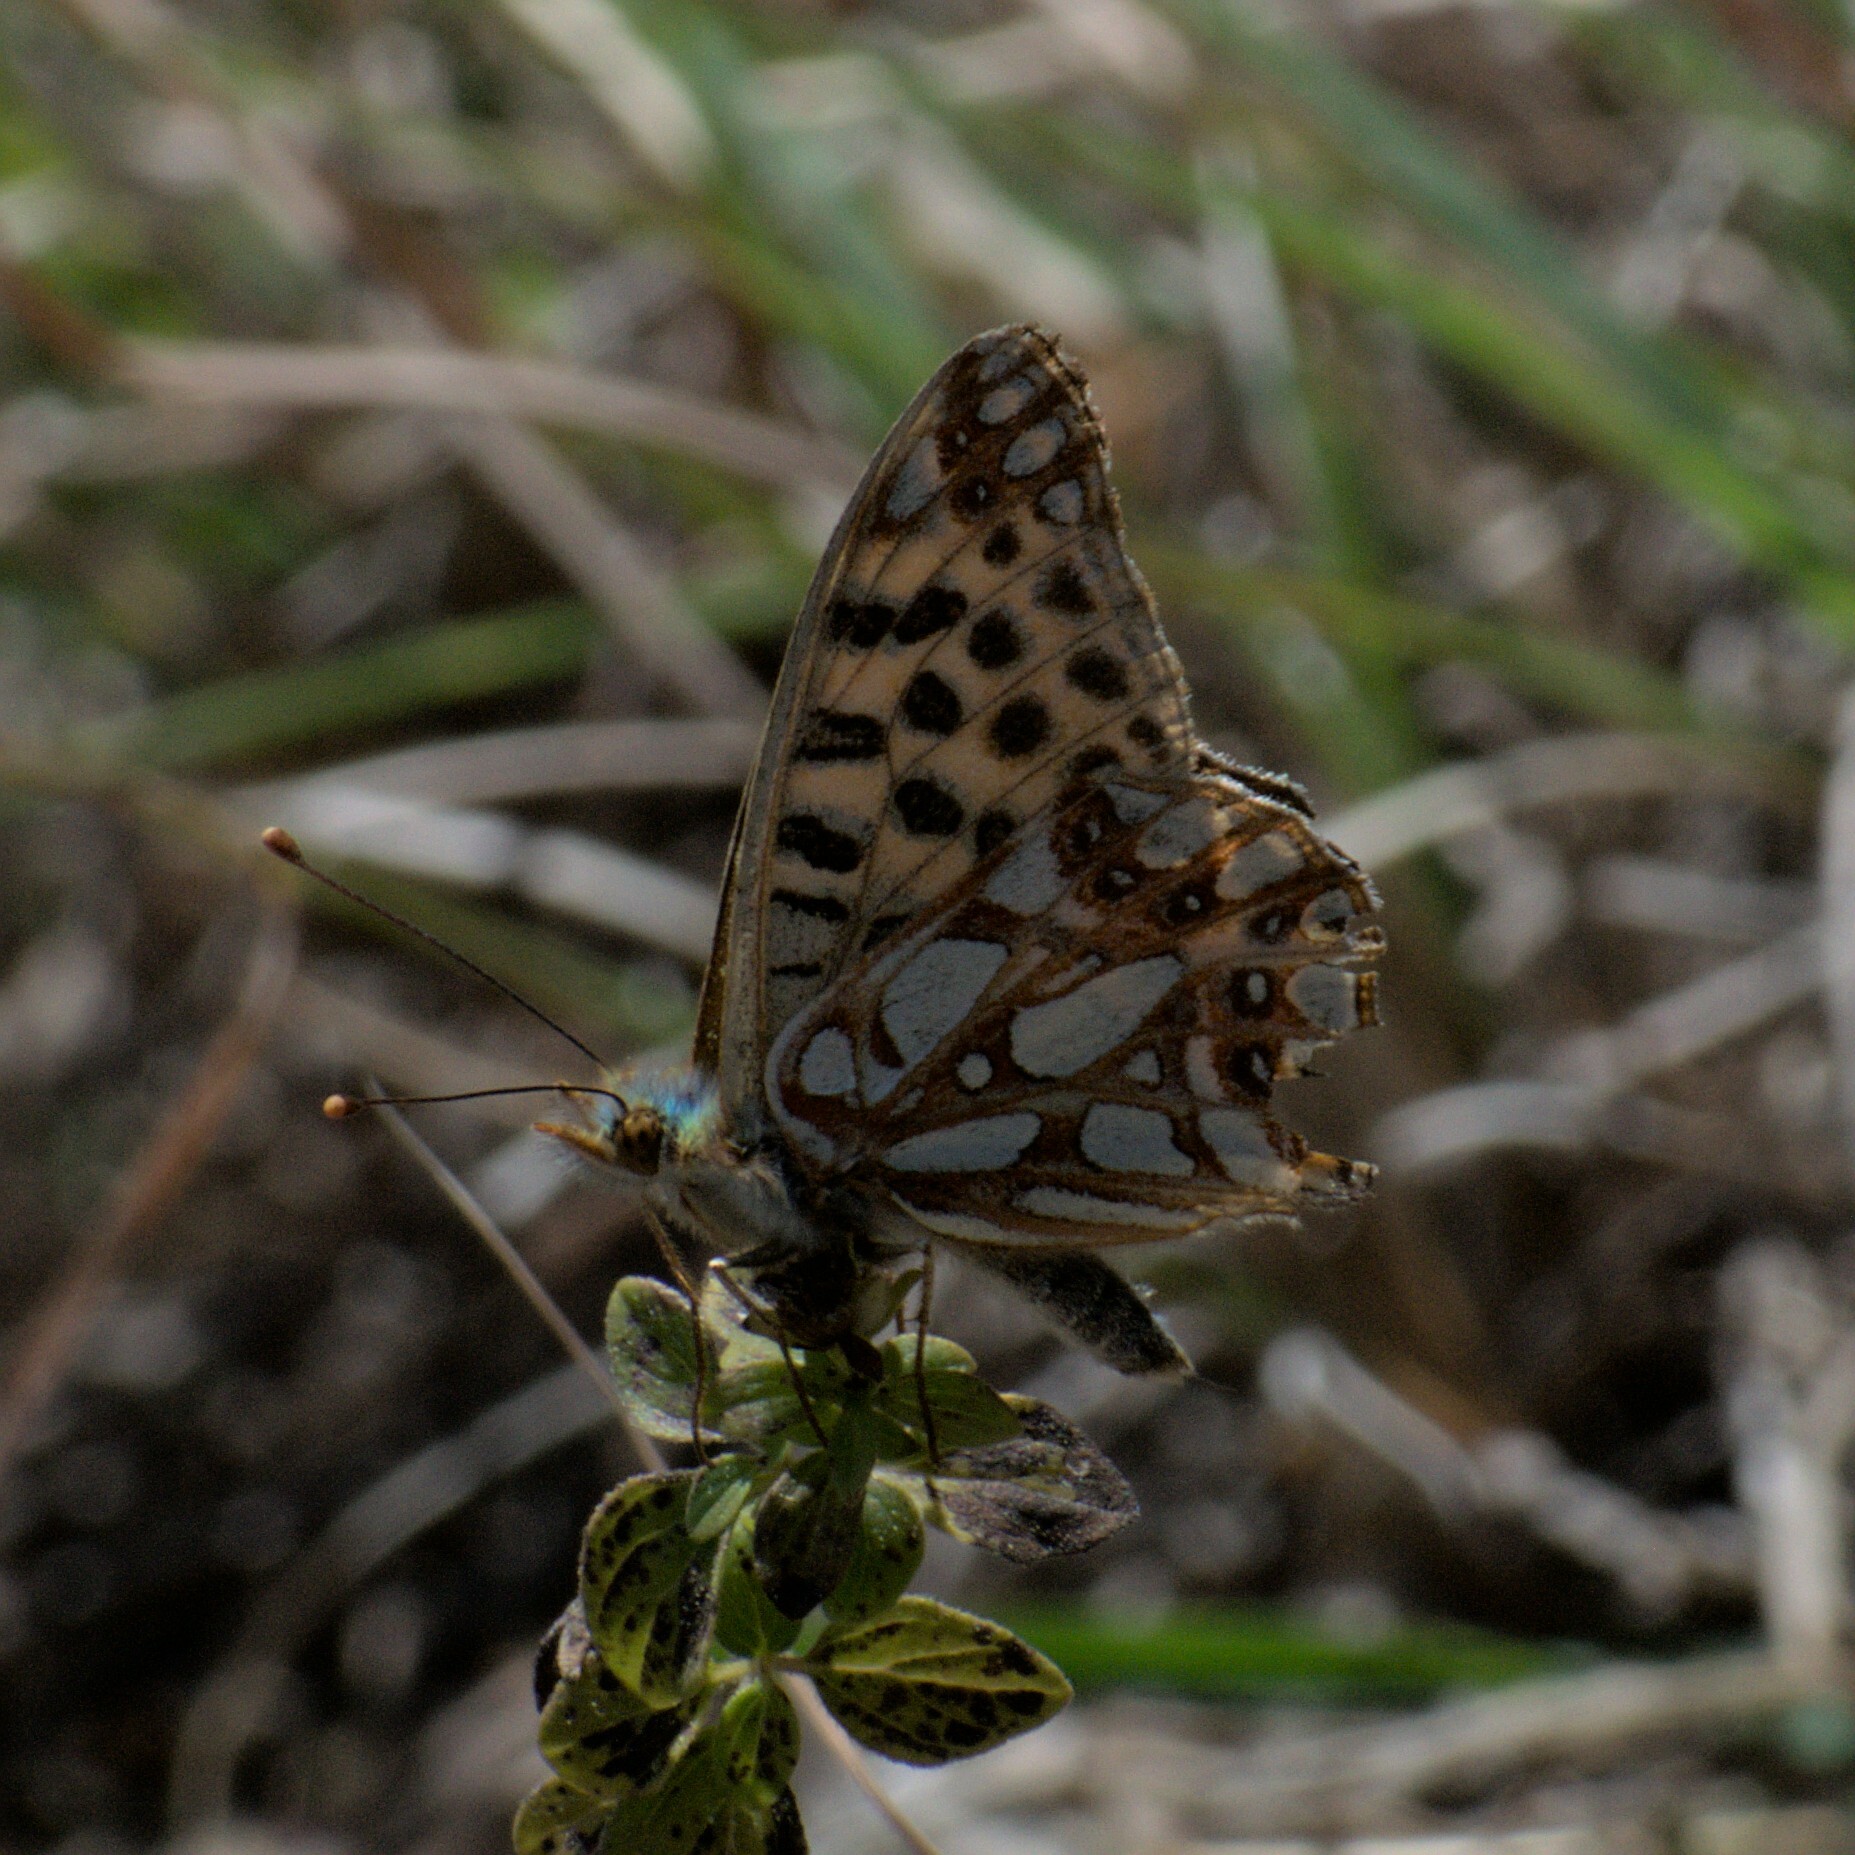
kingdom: Animalia
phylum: Arthropoda
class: Insecta
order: Lepidoptera
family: Nymphalidae
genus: Issoria
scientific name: Issoria
